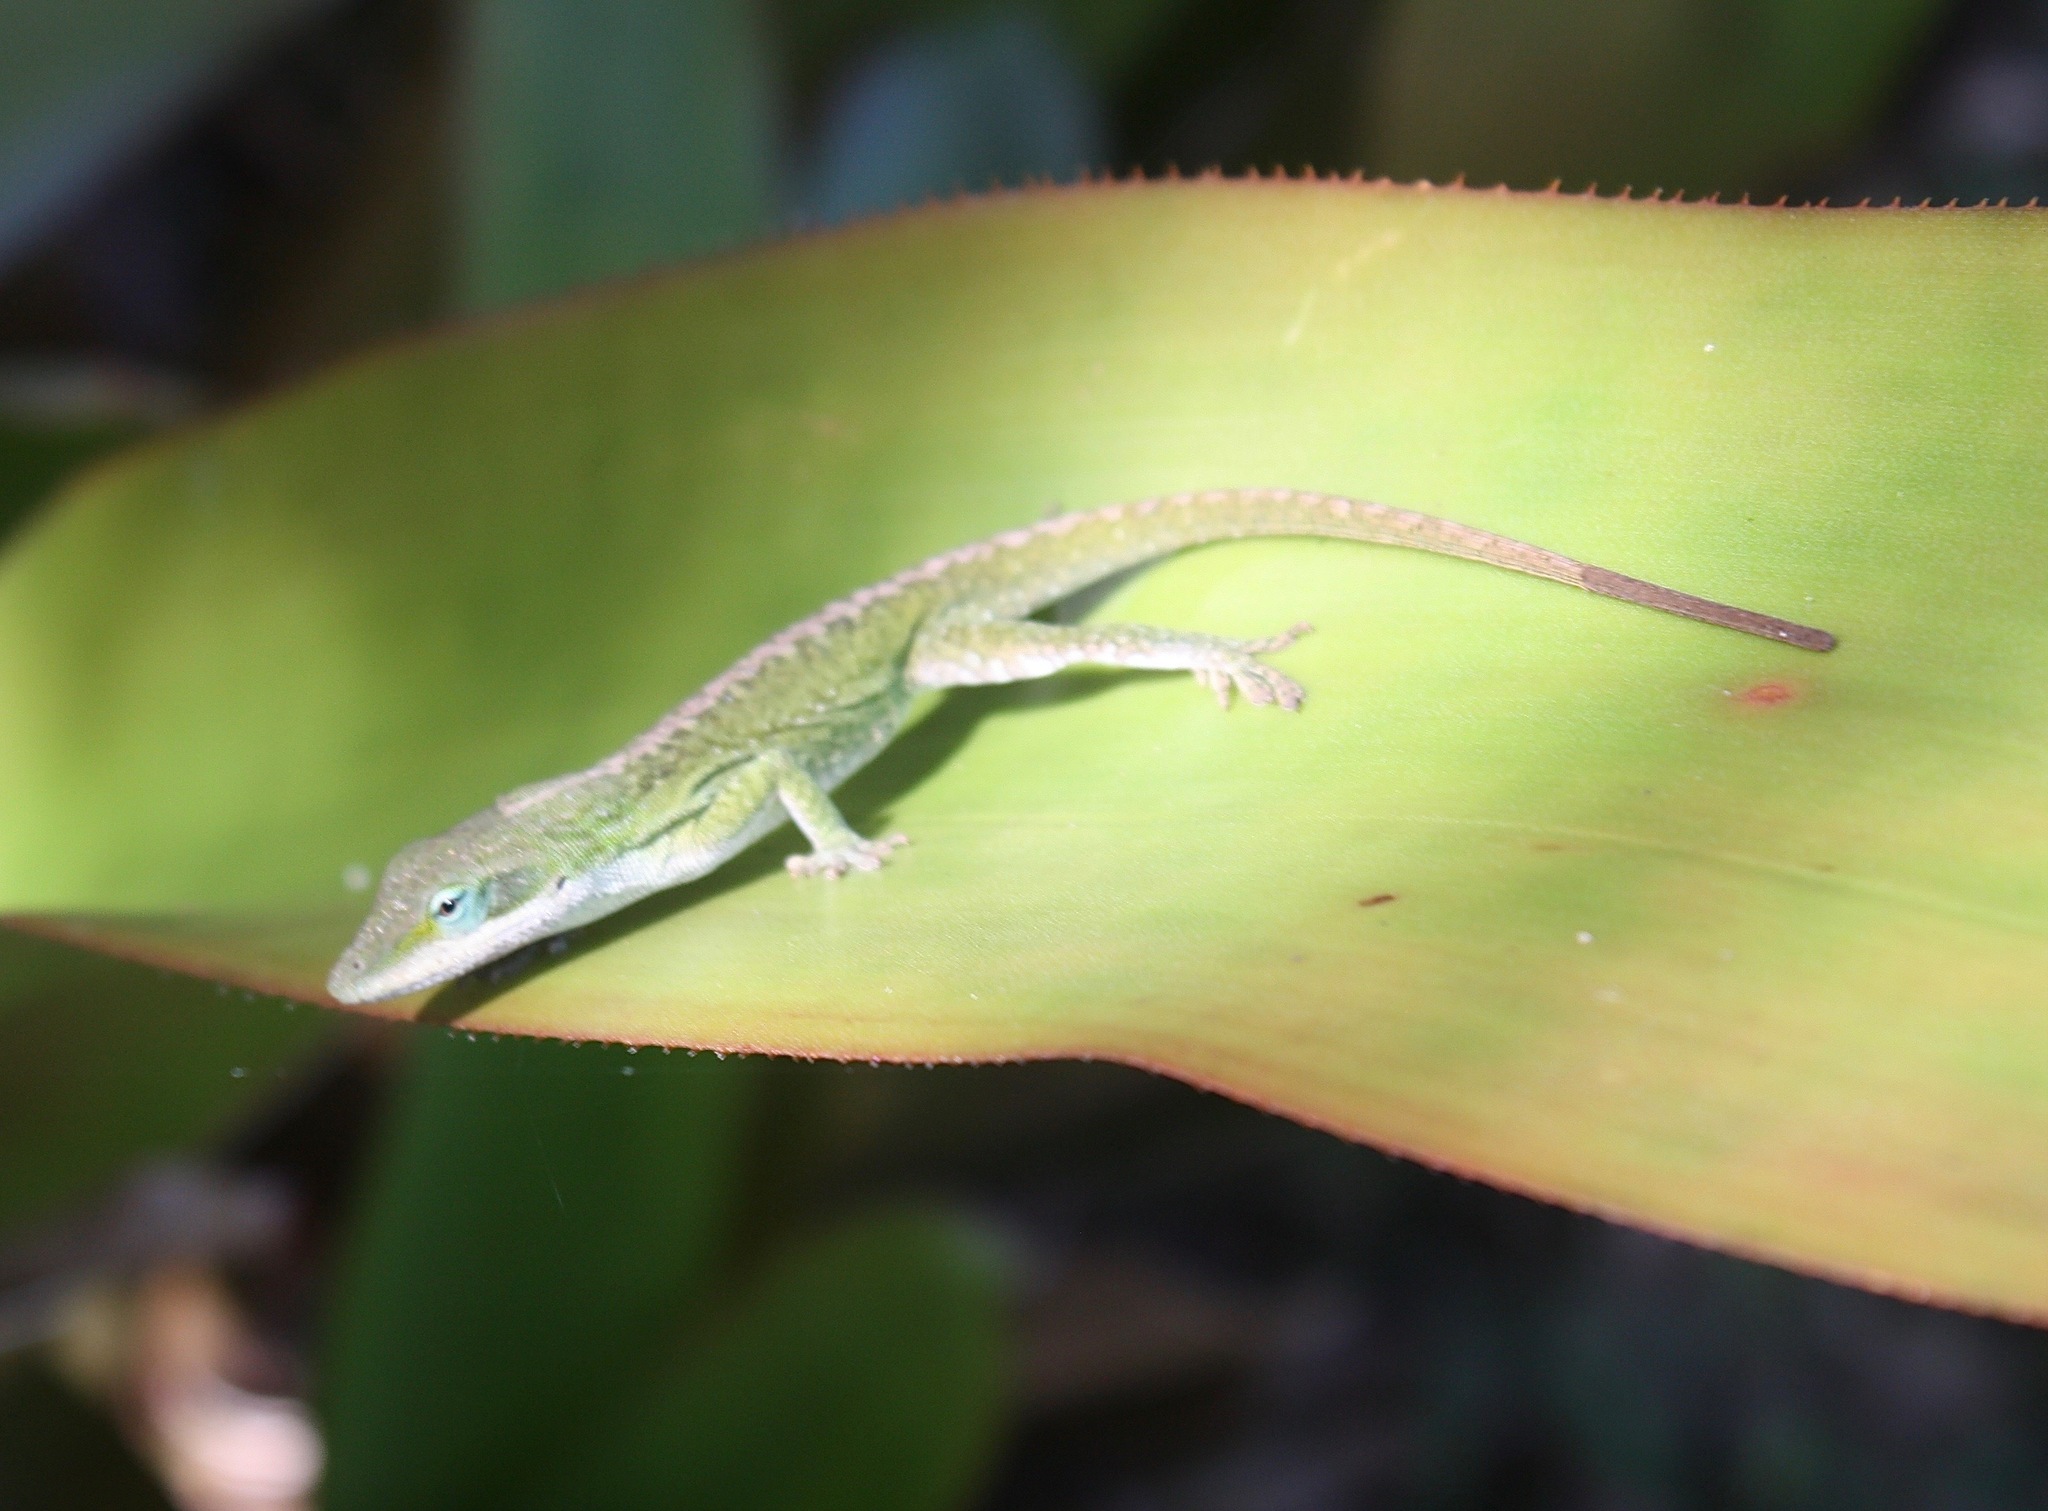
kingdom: Animalia
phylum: Chordata
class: Squamata
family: Dactyloidae
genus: Anolis
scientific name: Anolis carolinensis
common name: Green anole
